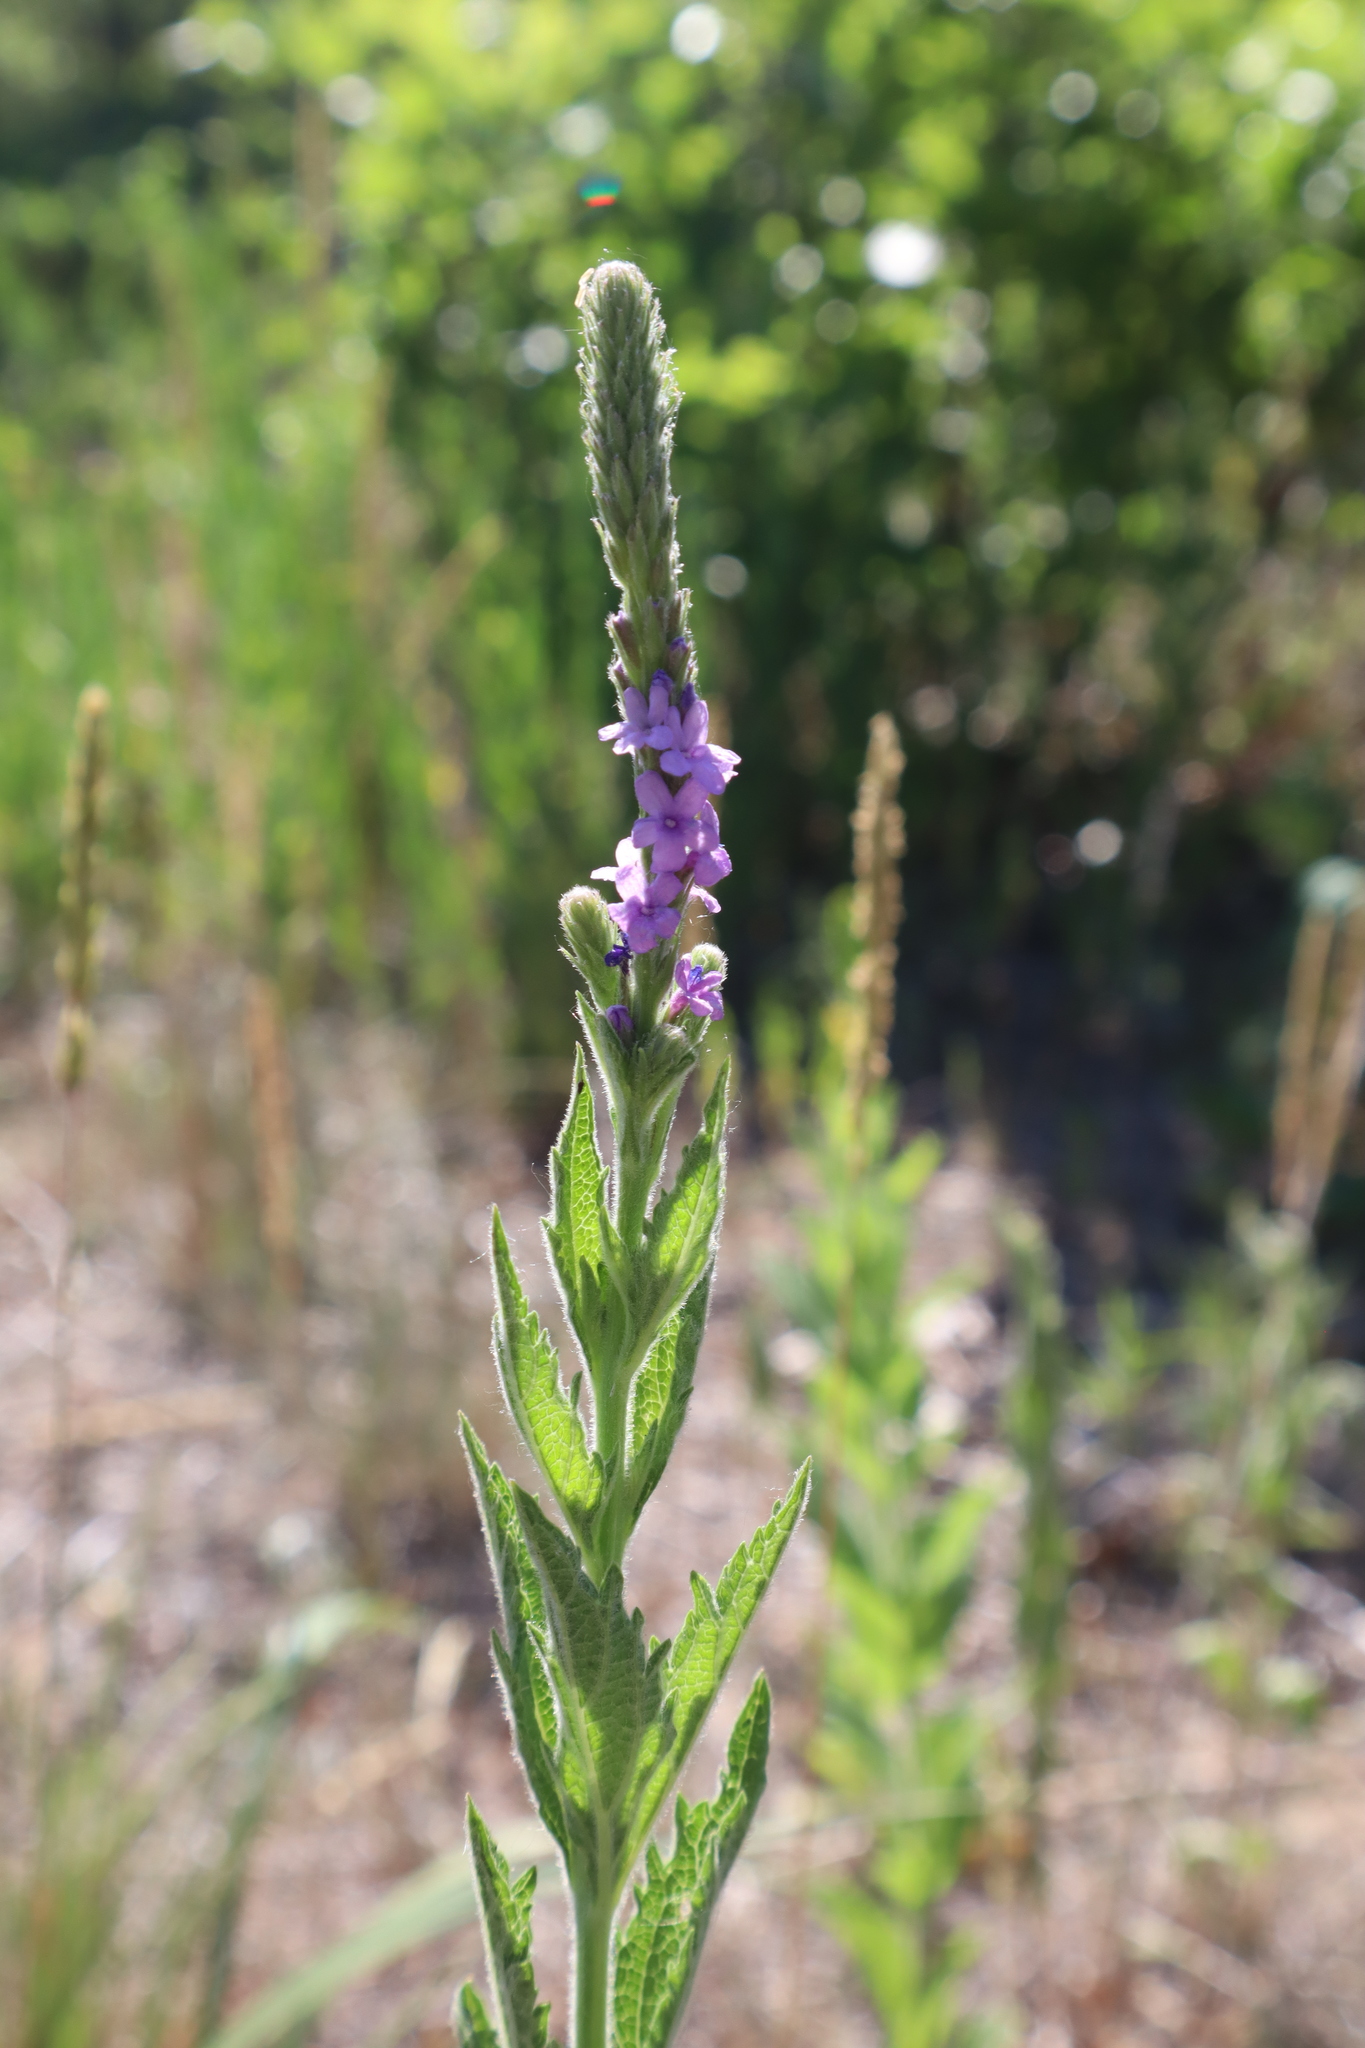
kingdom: Plantae
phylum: Tracheophyta
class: Magnoliopsida
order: Lamiales
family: Verbenaceae
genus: Verbena
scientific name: Verbena stricta
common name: Hoary vervain
